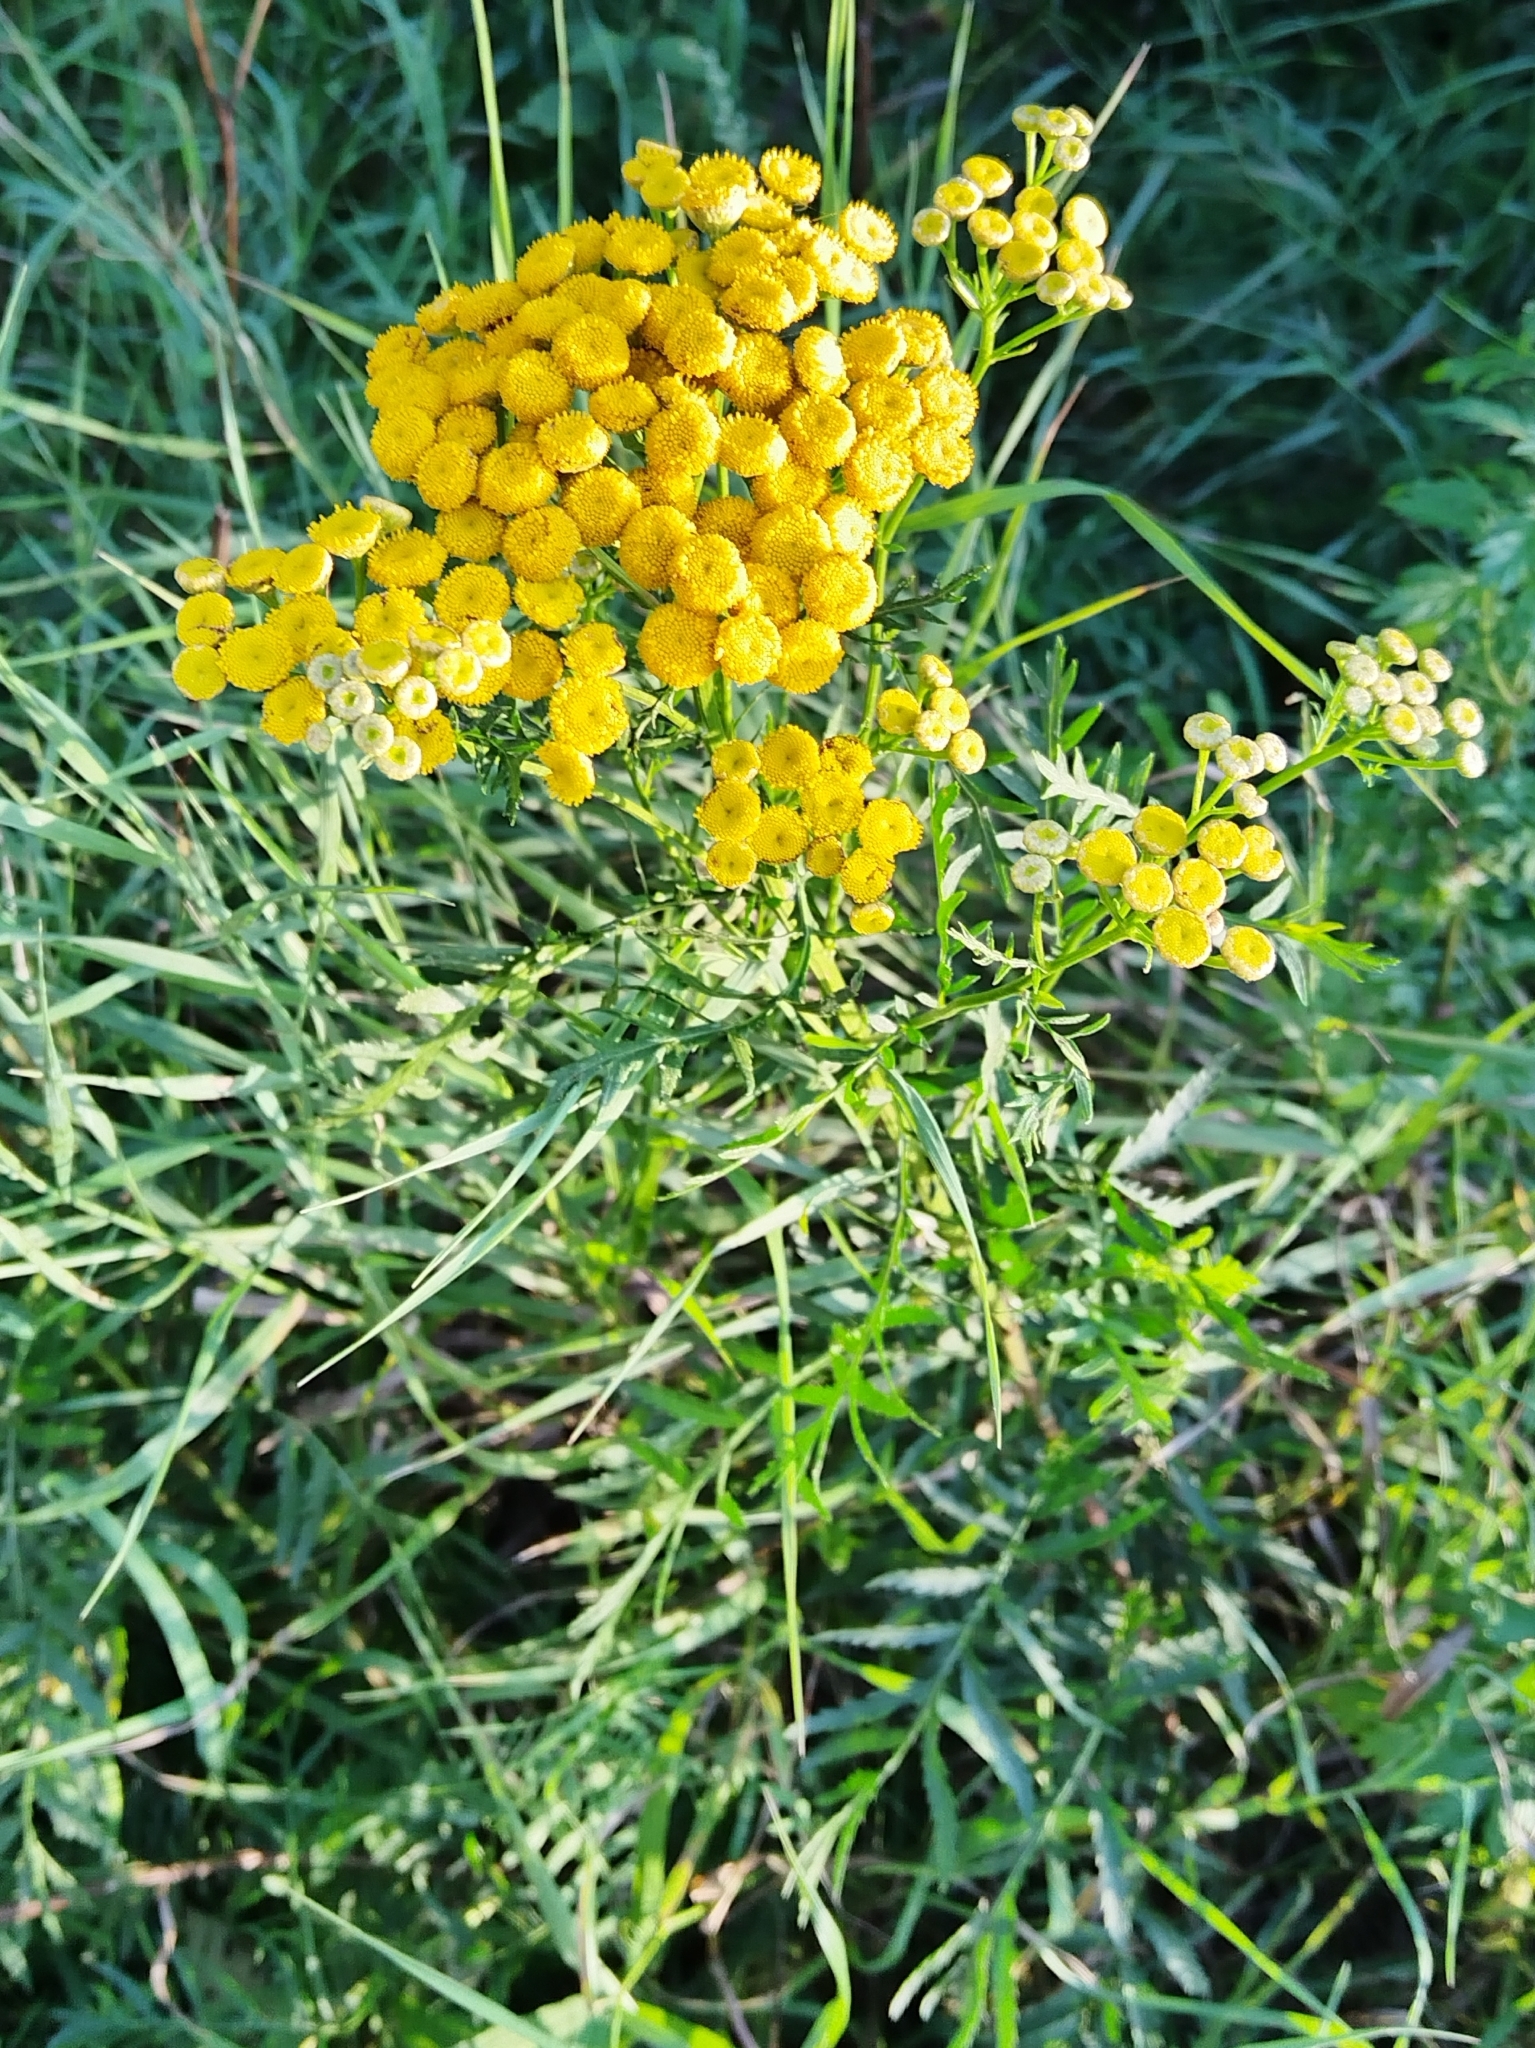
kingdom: Plantae
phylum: Tracheophyta
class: Magnoliopsida
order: Asterales
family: Asteraceae
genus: Tanacetum
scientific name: Tanacetum vulgare
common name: Common tansy
